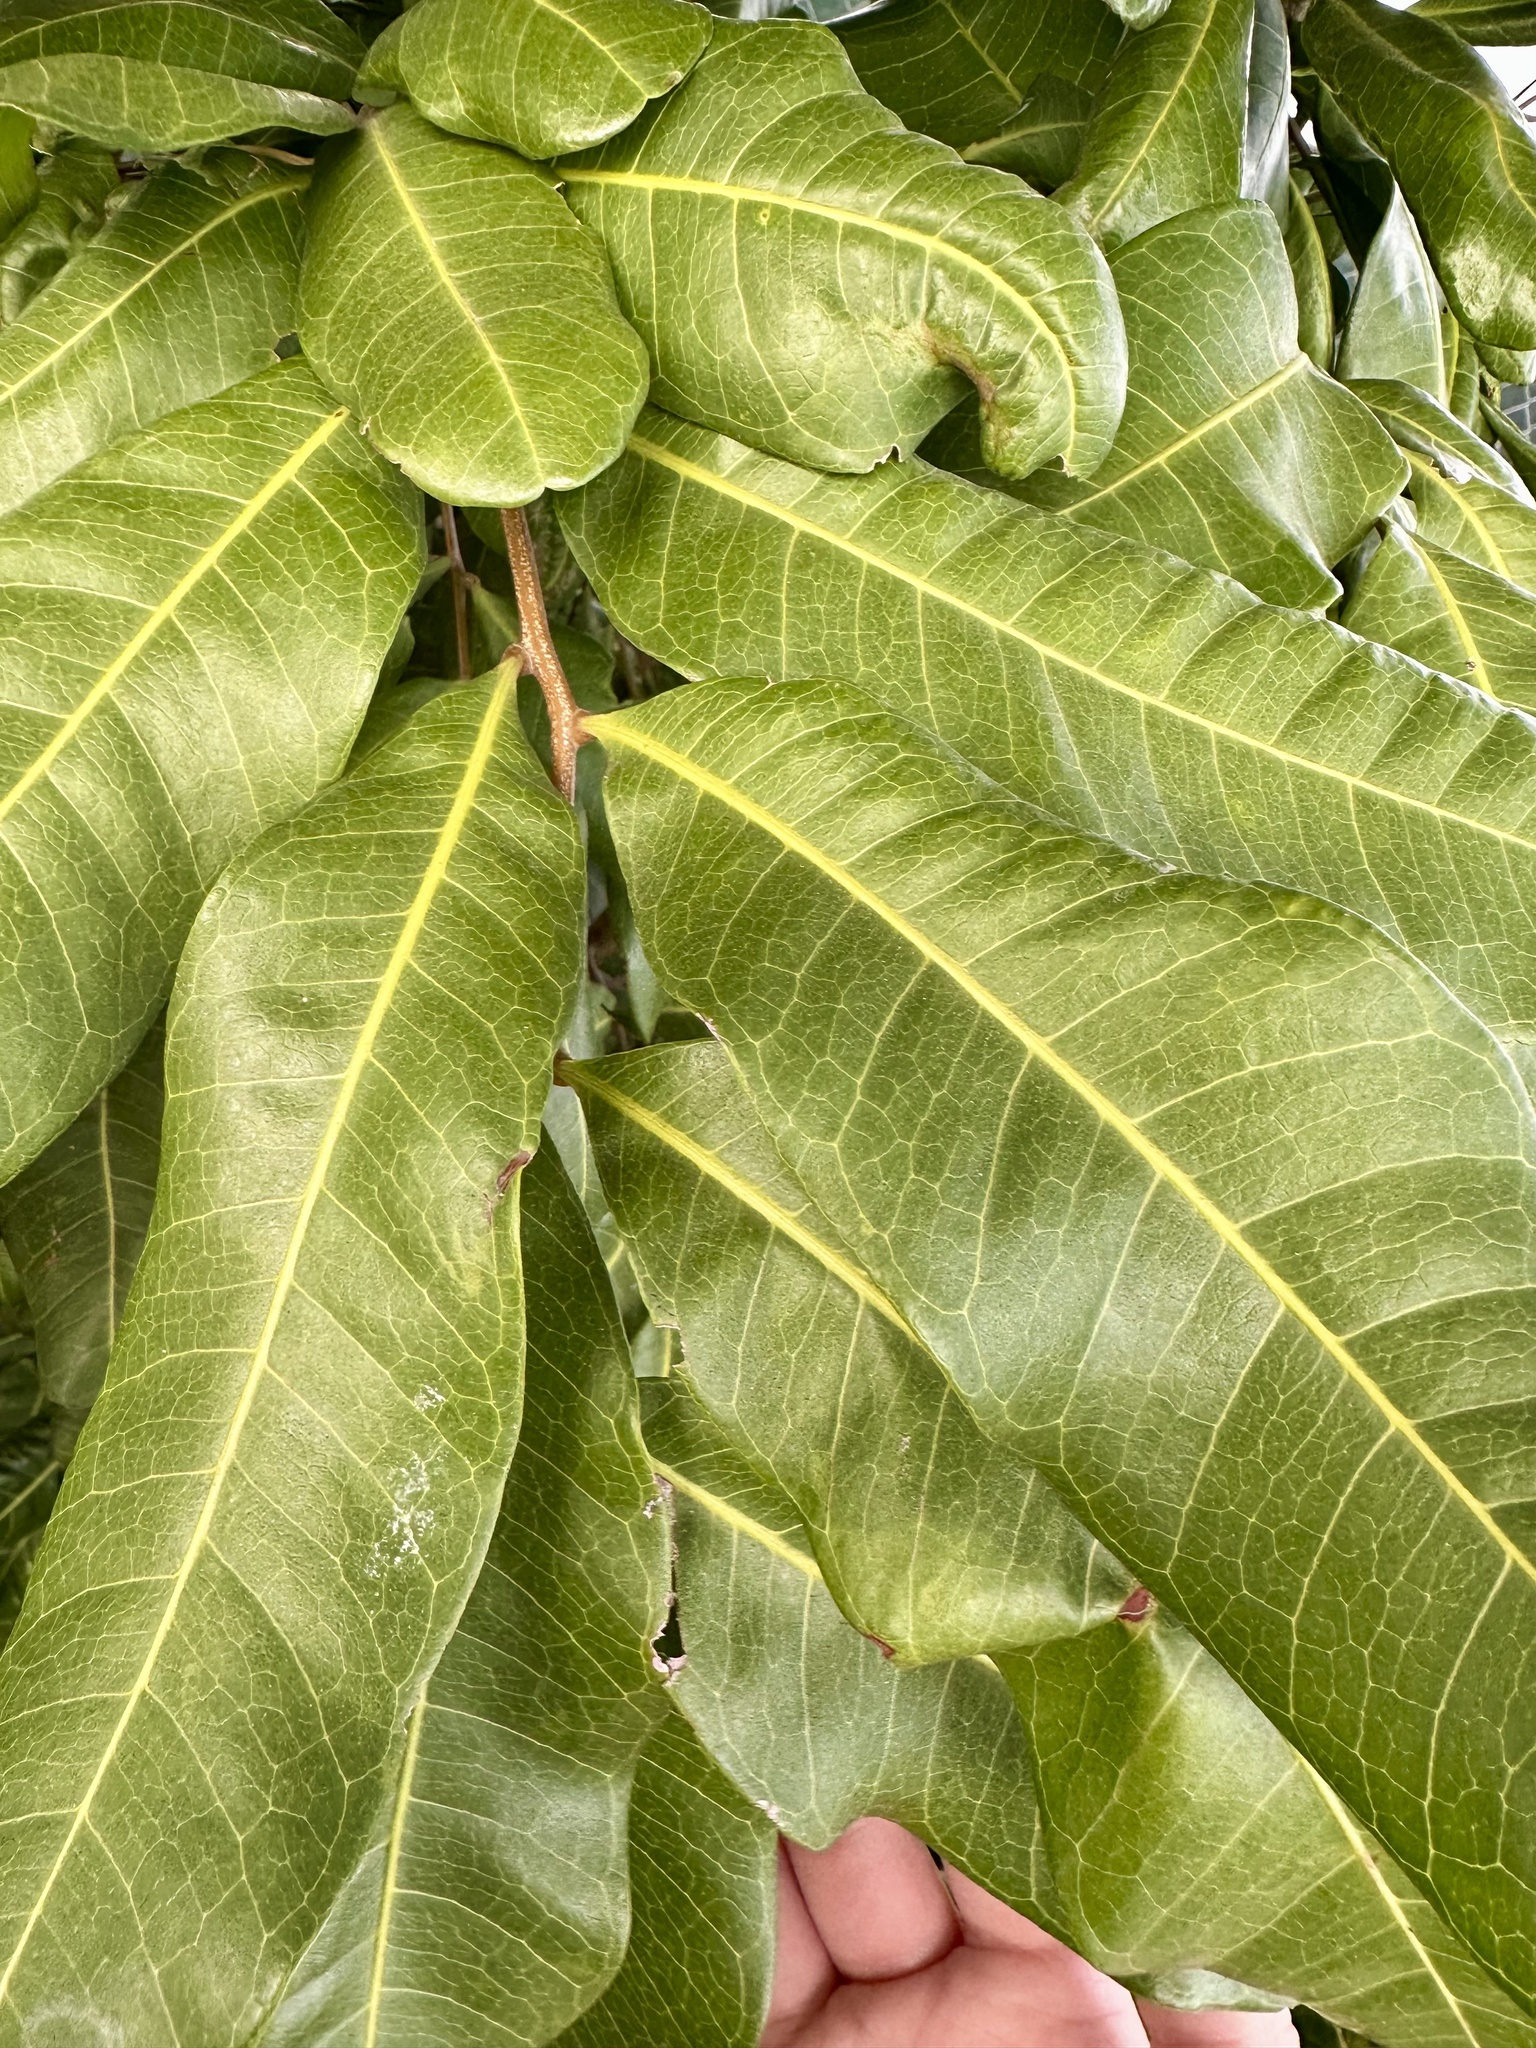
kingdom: Plantae
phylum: Tracheophyta
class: Magnoliopsida
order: Sapindales
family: Sapindaceae
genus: Cupaniopsis
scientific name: Cupaniopsis anacardioides
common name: Carrotwood
